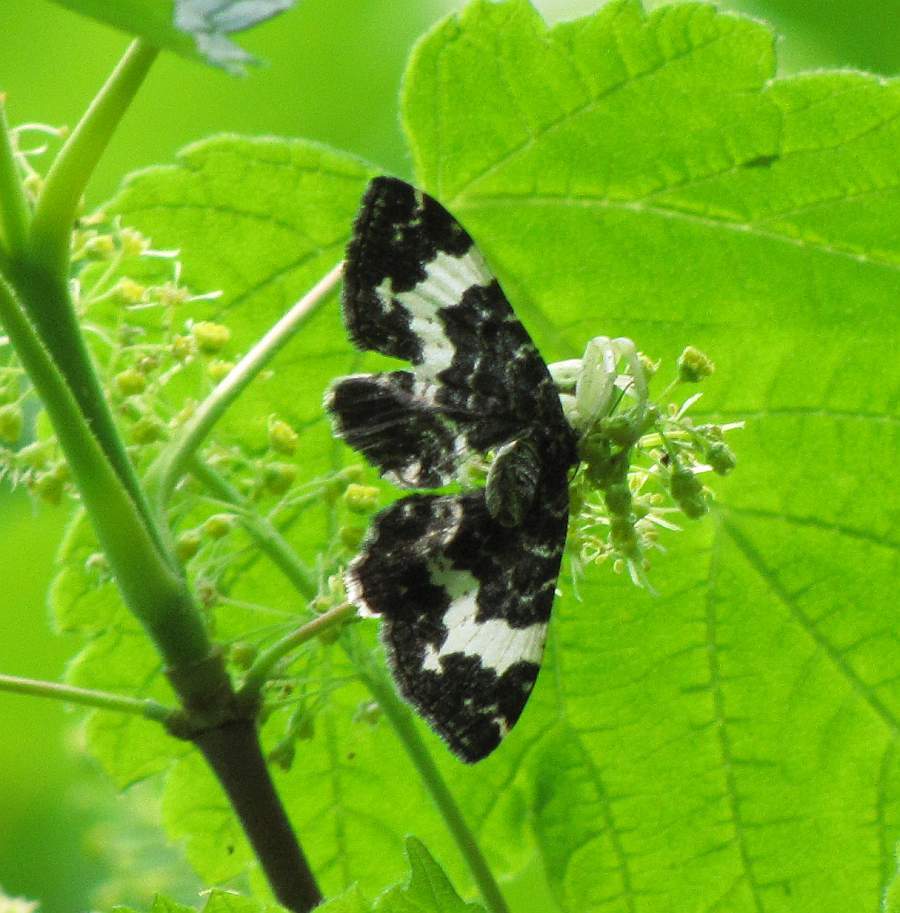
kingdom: Animalia
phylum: Arthropoda
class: Insecta
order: Lepidoptera
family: Geometridae
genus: Rheumaptera
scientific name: Rheumaptera
